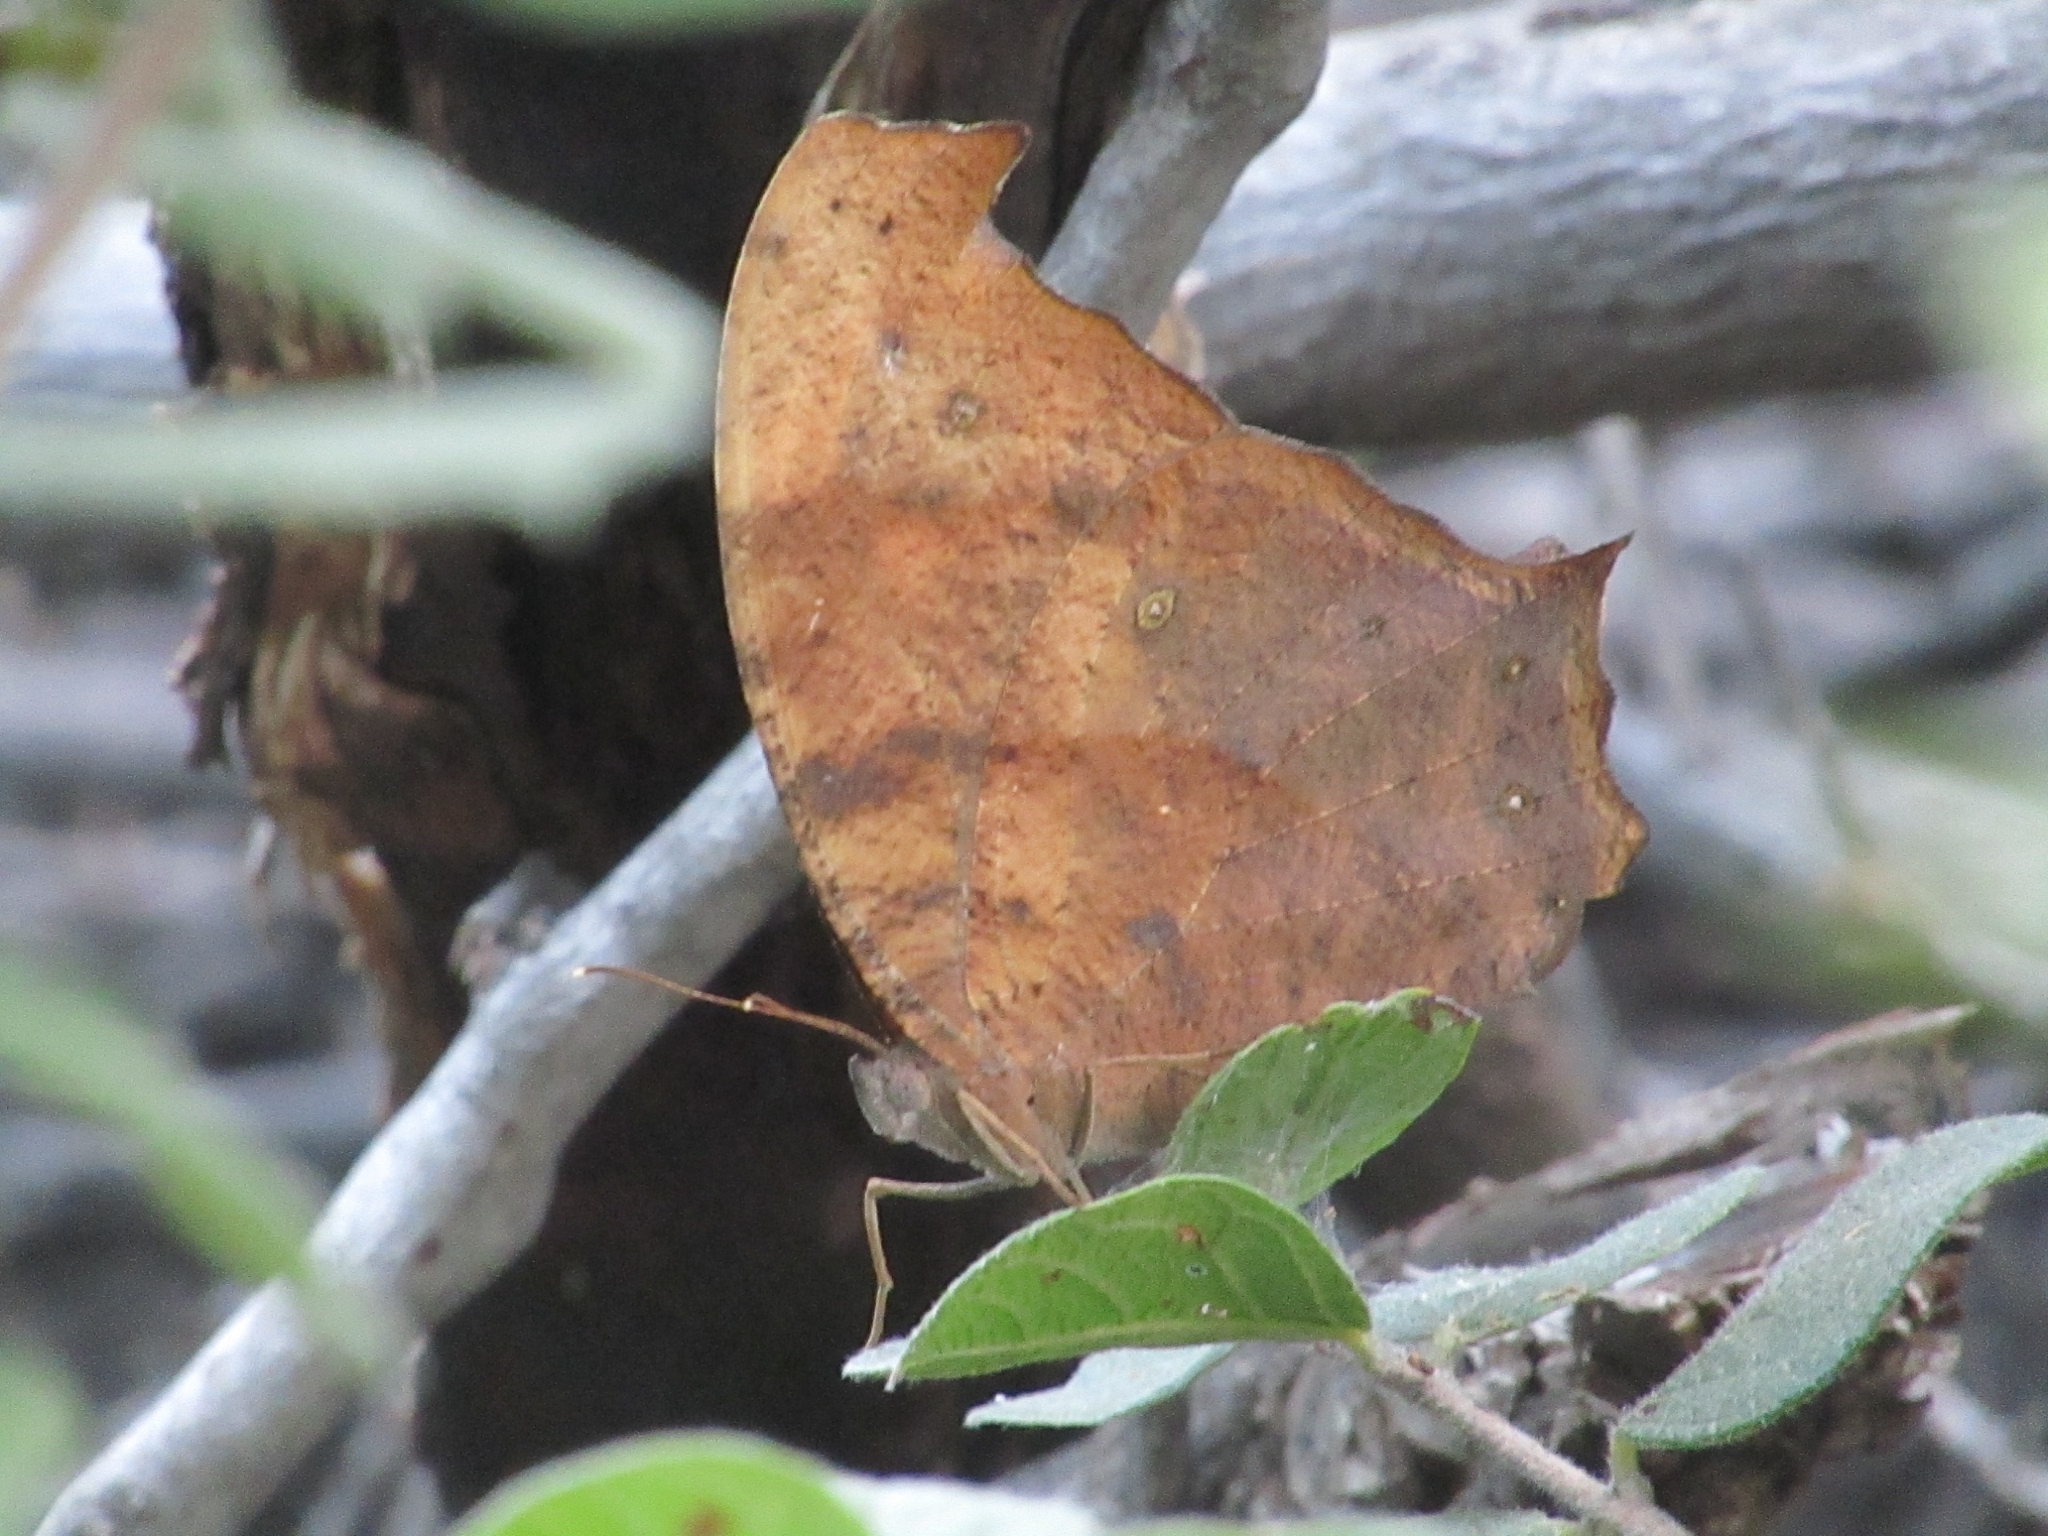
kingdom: Animalia
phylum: Arthropoda
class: Insecta
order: Lepidoptera
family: Nymphalidae
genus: Melanitis
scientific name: Melanitis leda
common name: Twilight brown
